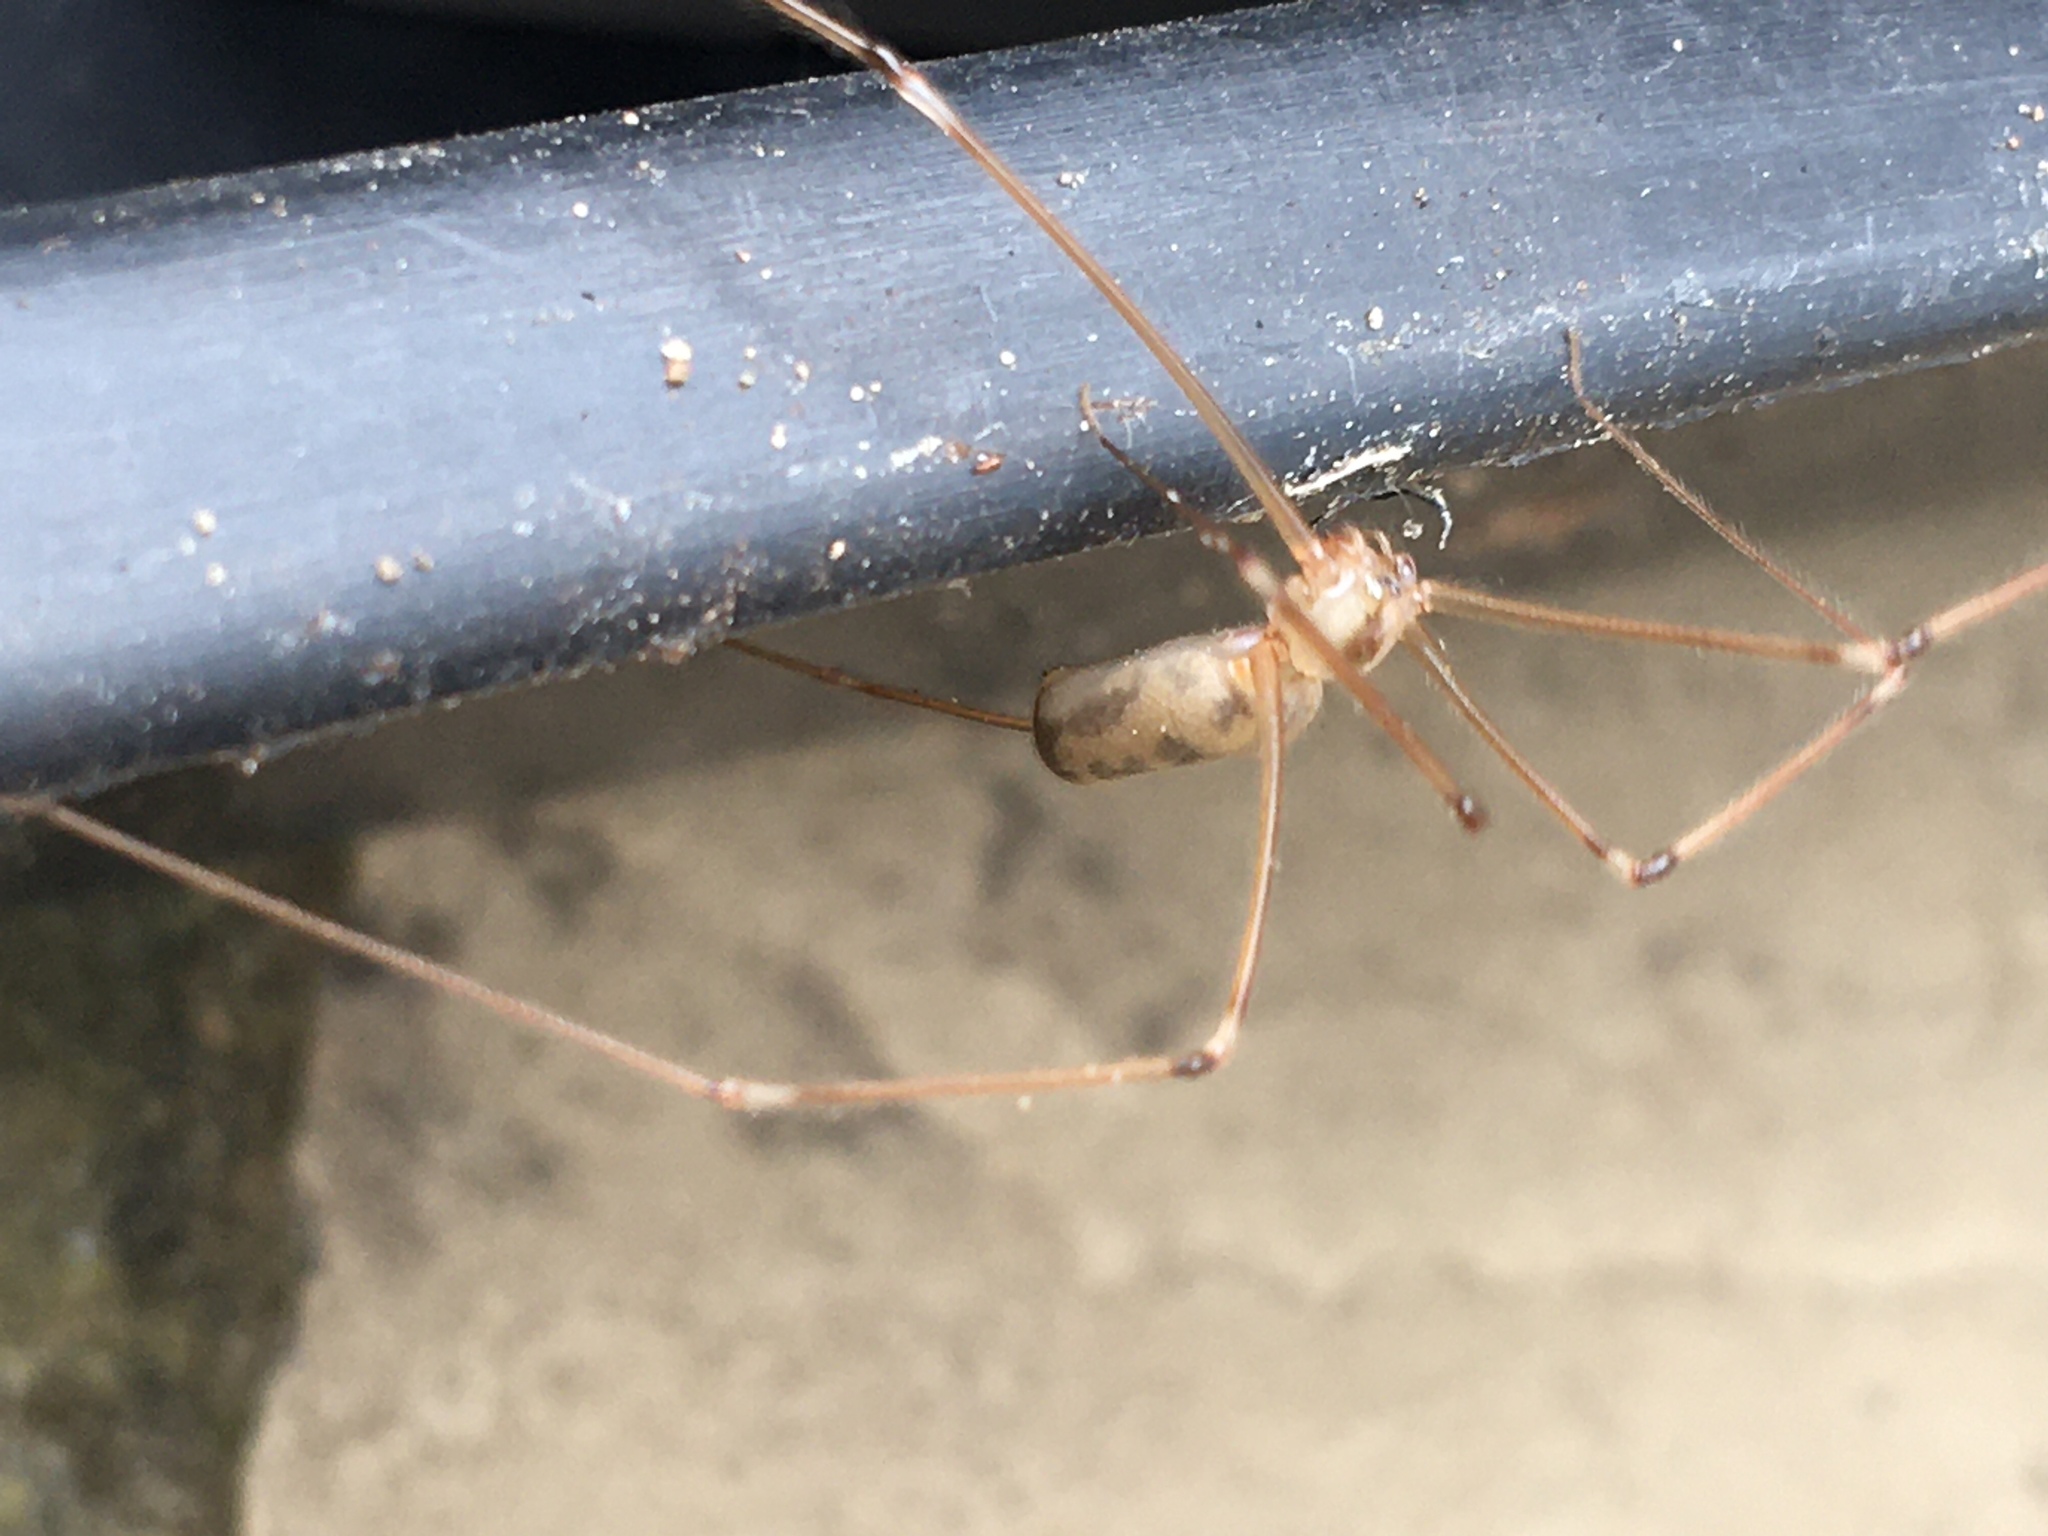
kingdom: Animalia
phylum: Arthropoda
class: Arachnida
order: Araneae
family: Pholcidae
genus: Pholcus
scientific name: Pholcus phalangioides
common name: Longbodied cellar spider
